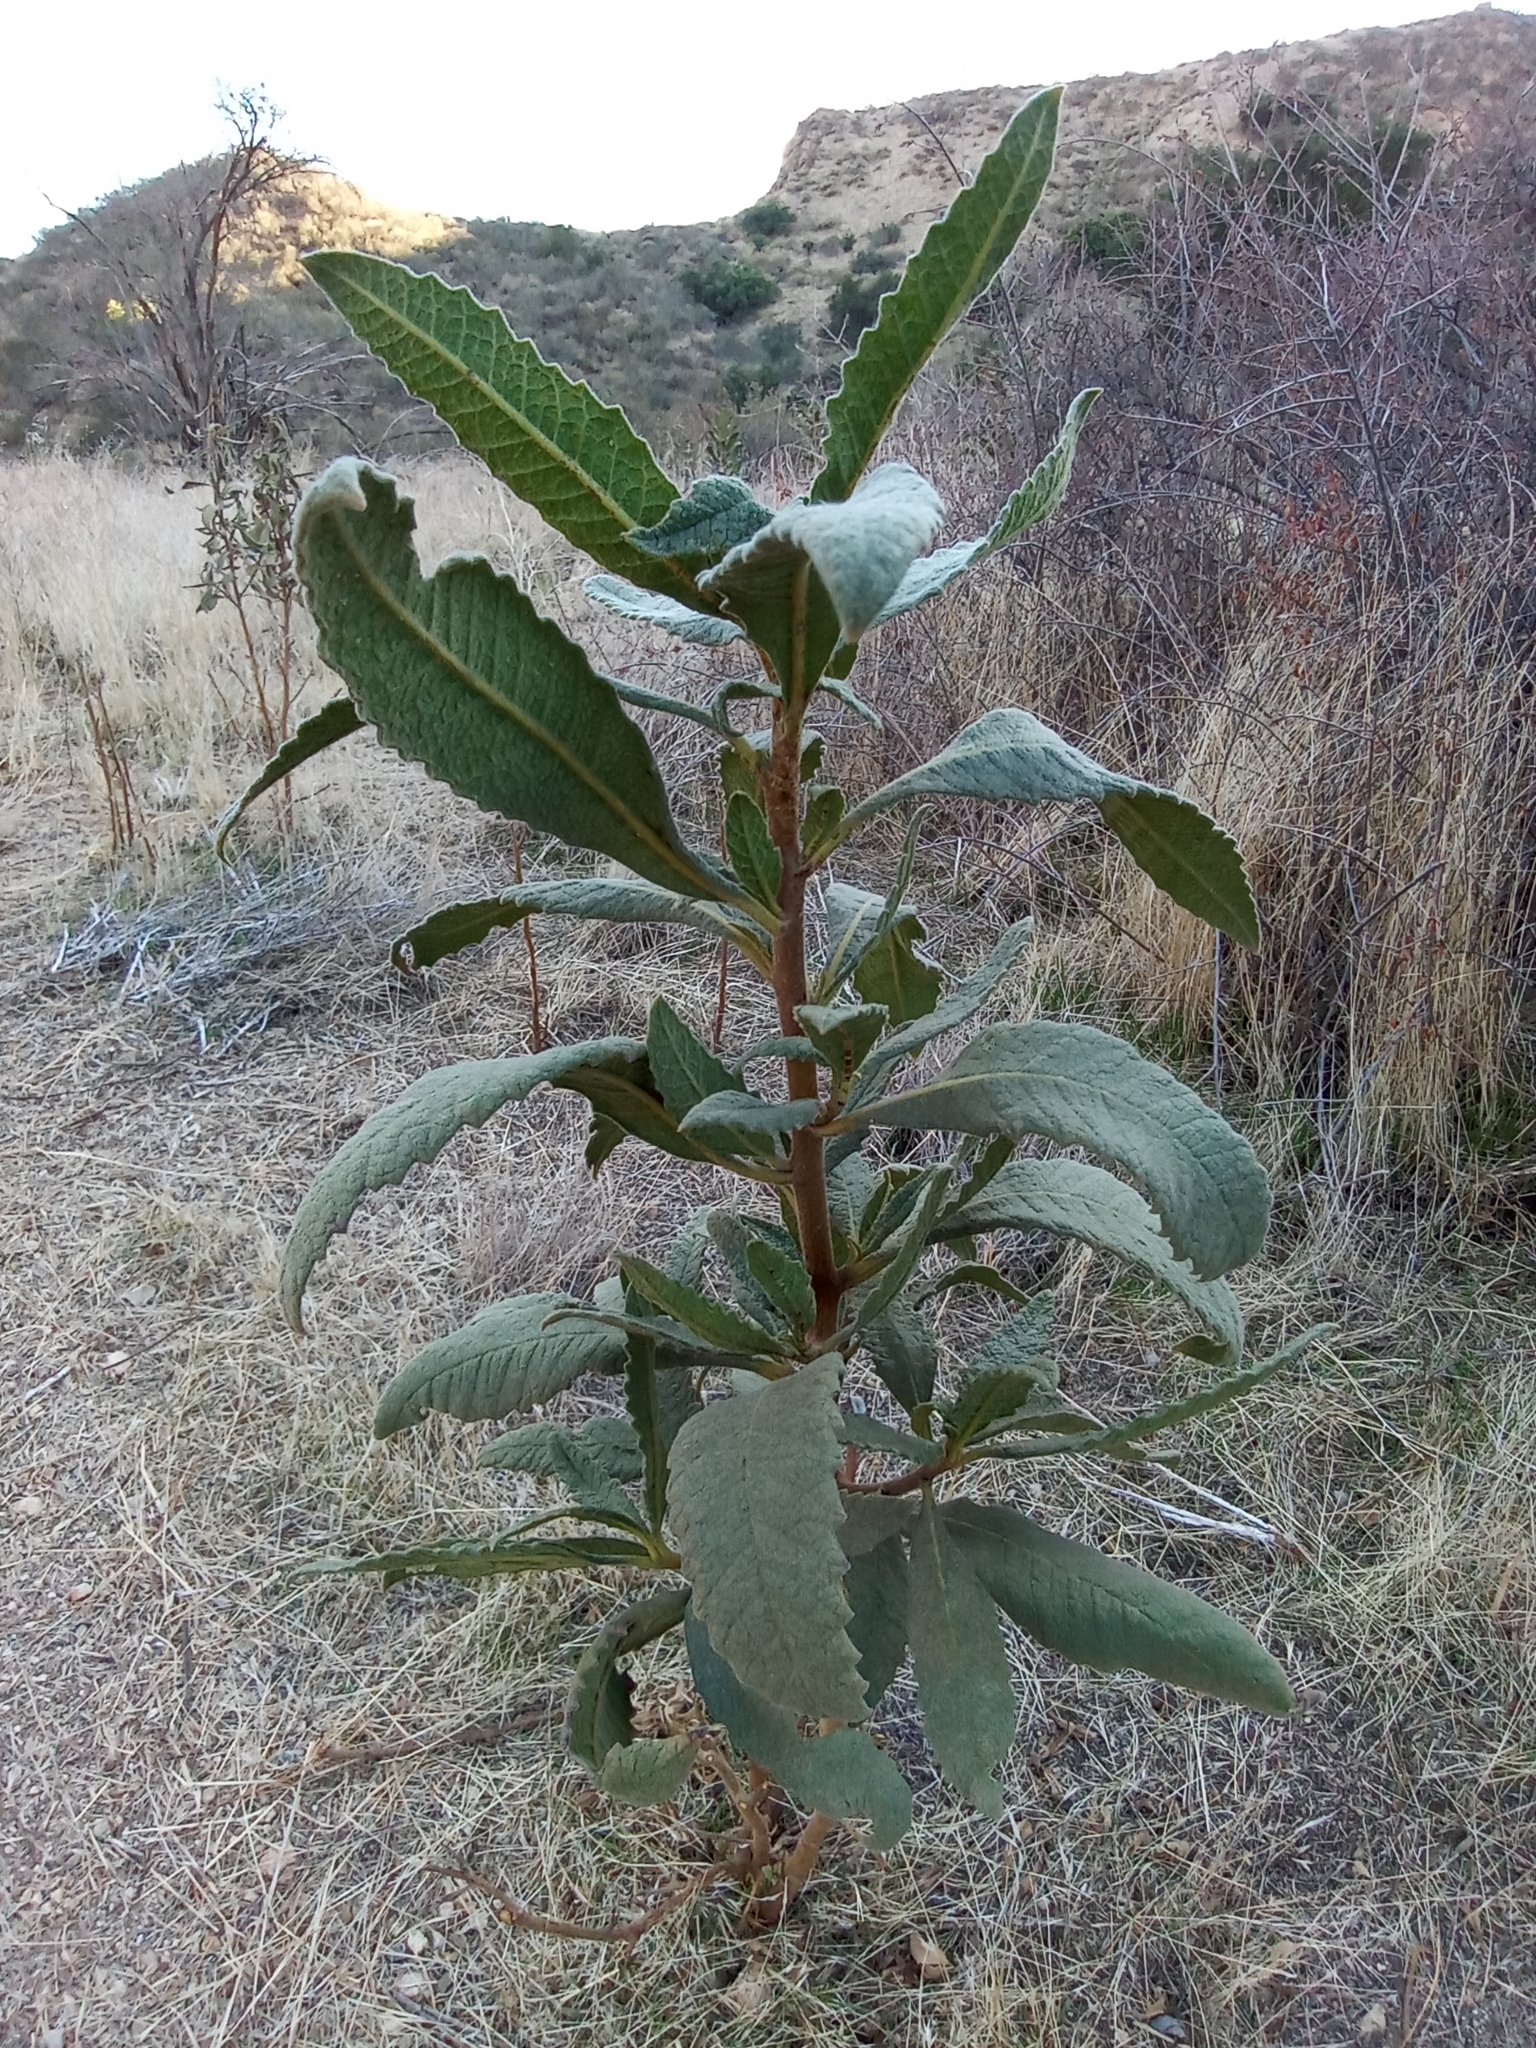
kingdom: Plantae
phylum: Tracheophyta
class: Magnoliopsida
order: Boraginales
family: Namaceae
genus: Eriodictyon
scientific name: Eriodictyon crassifolium
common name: Thick-leaf yerba-santa
